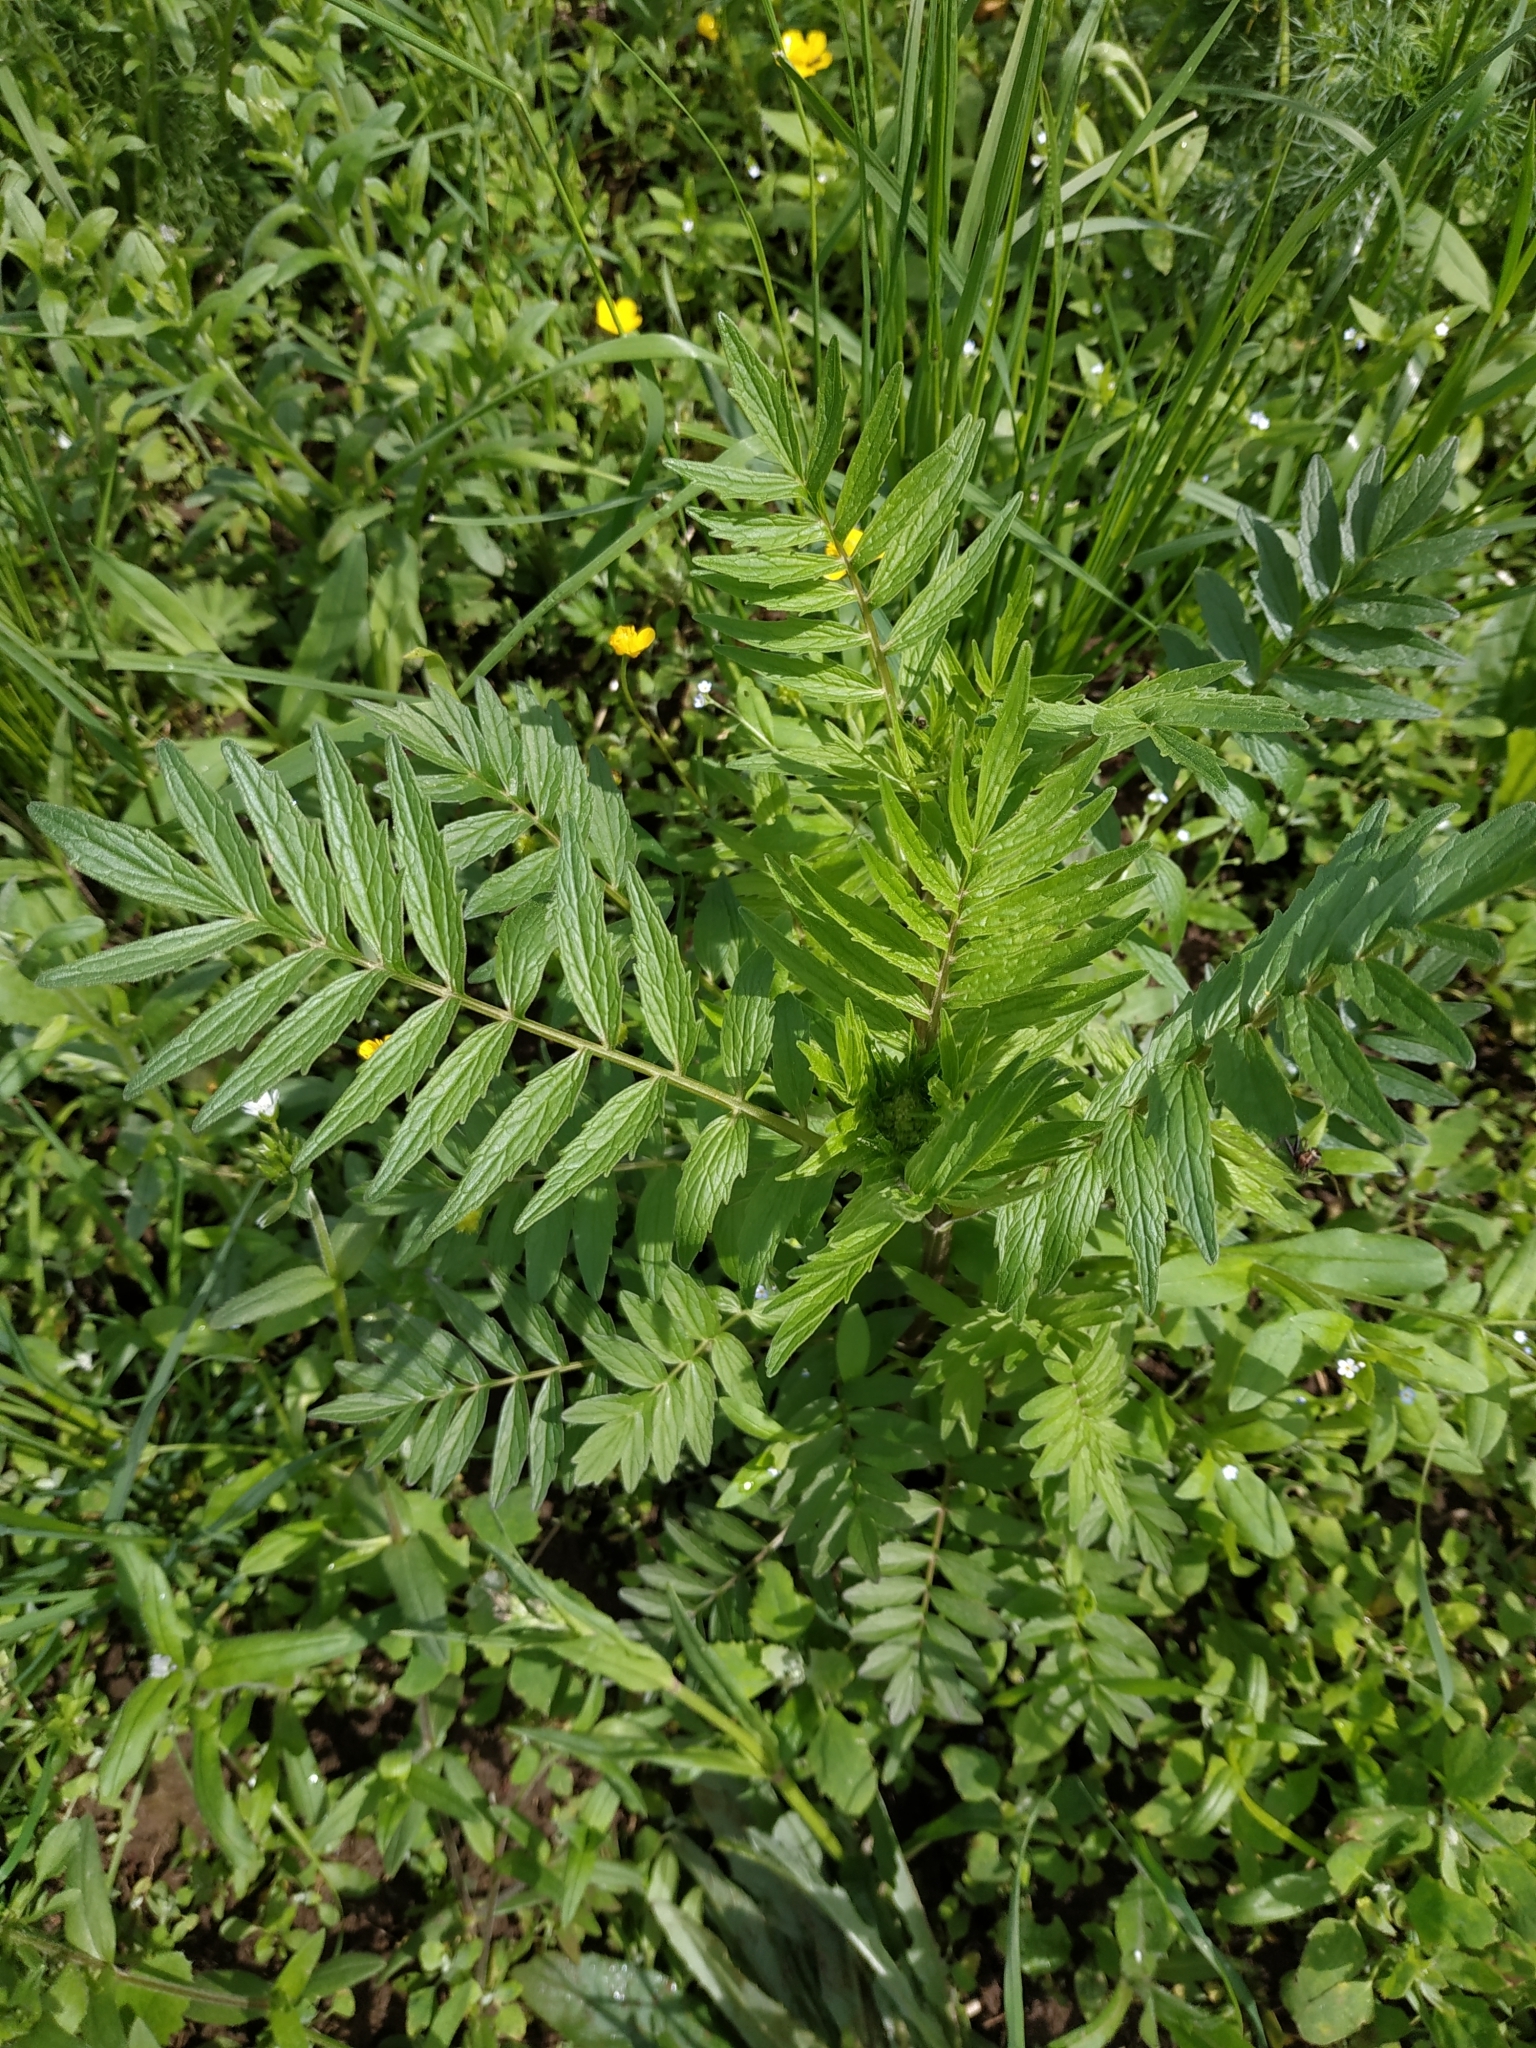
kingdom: Plantae
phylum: Tracheophyta
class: Magnoliopsida
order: Rosales
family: Rosaceae
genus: Filipendula
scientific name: Filipendula ulmaria
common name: Meadowsweet
